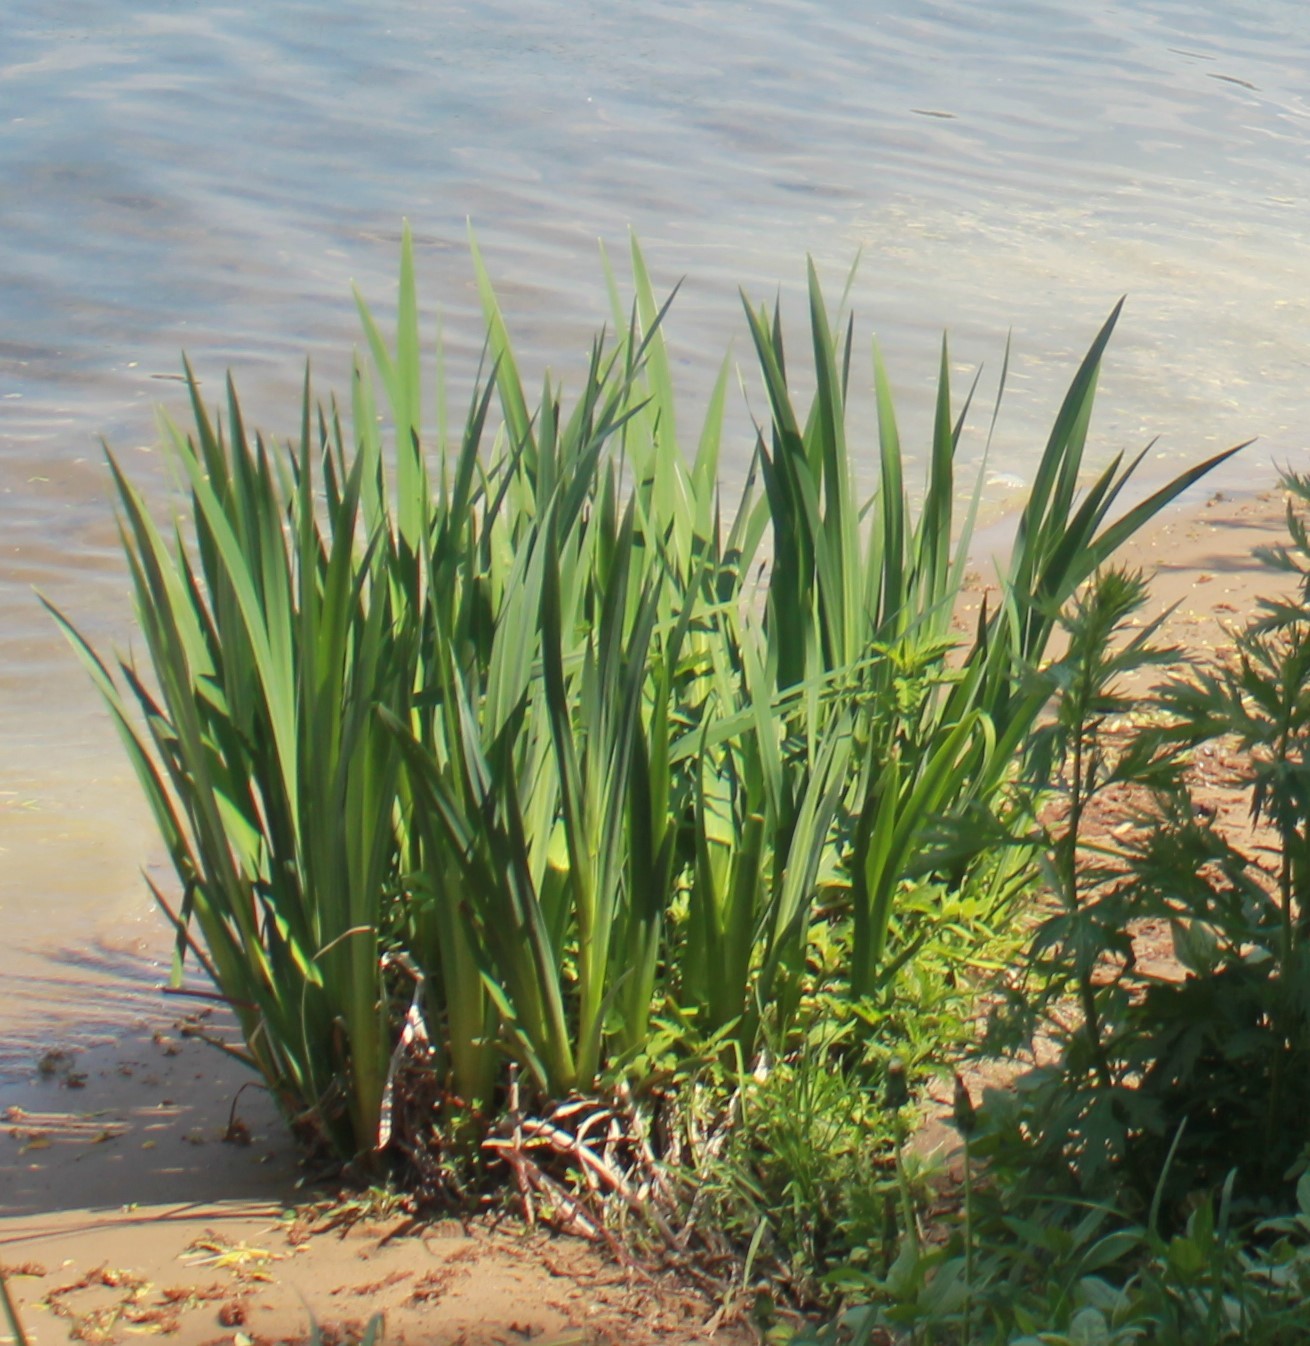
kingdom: Plantae
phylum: Tracheophyta
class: Liliopsida
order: Asparagales
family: Iridaceae
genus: Iris
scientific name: Iris pseudacorus
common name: Yellow flag
